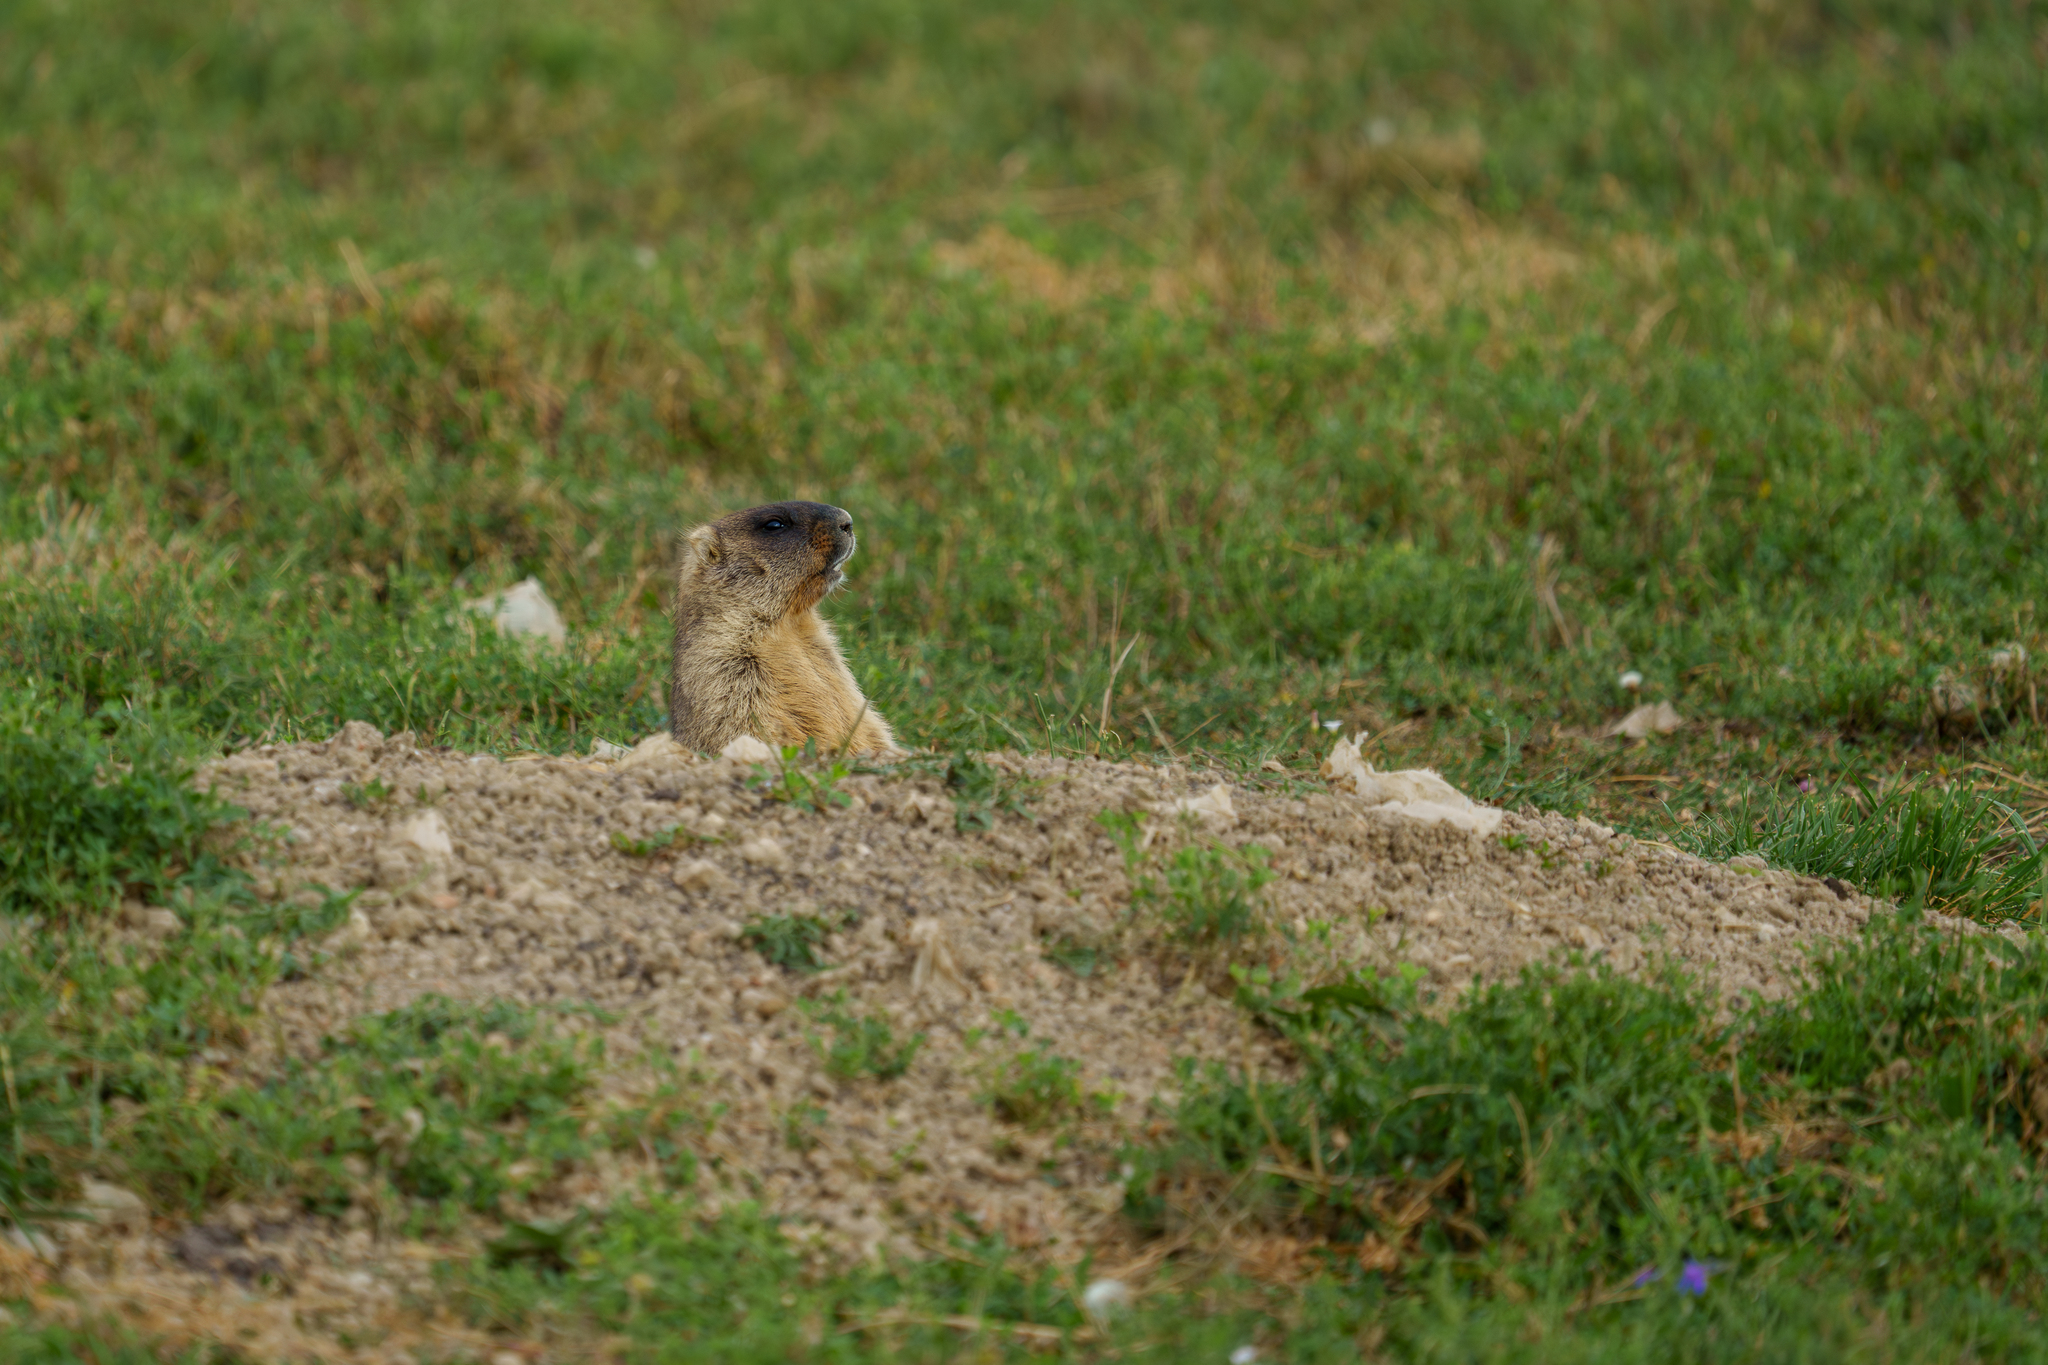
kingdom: Animalia
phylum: Chordata
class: Mammalia
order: Rodentia
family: Sciuridae
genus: Marmota
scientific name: Marmota bobak
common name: Bobak marmot
